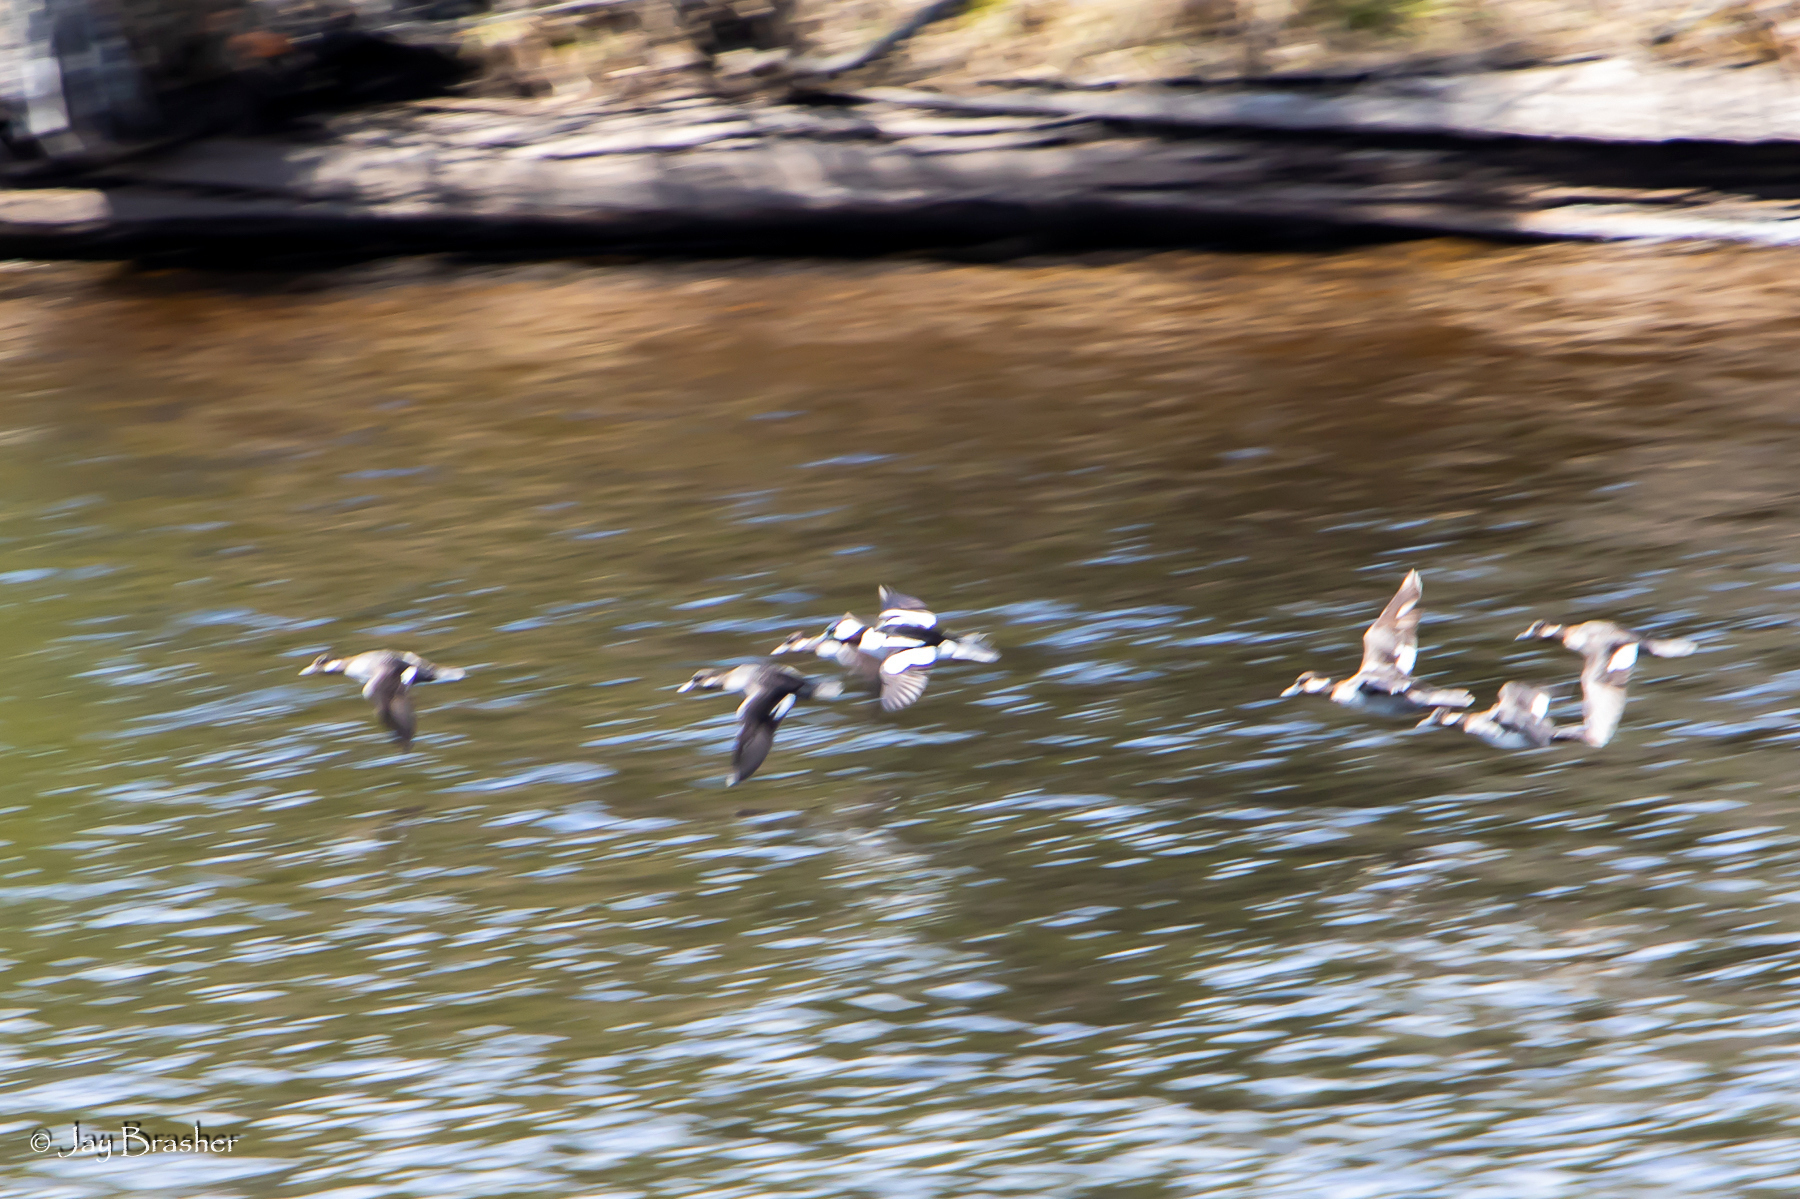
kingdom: Animalia
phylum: Chordata
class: Aves
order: Anseriformes
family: Anatidae
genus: Bucephala
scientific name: Bucephala albeola
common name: Bufflehead
